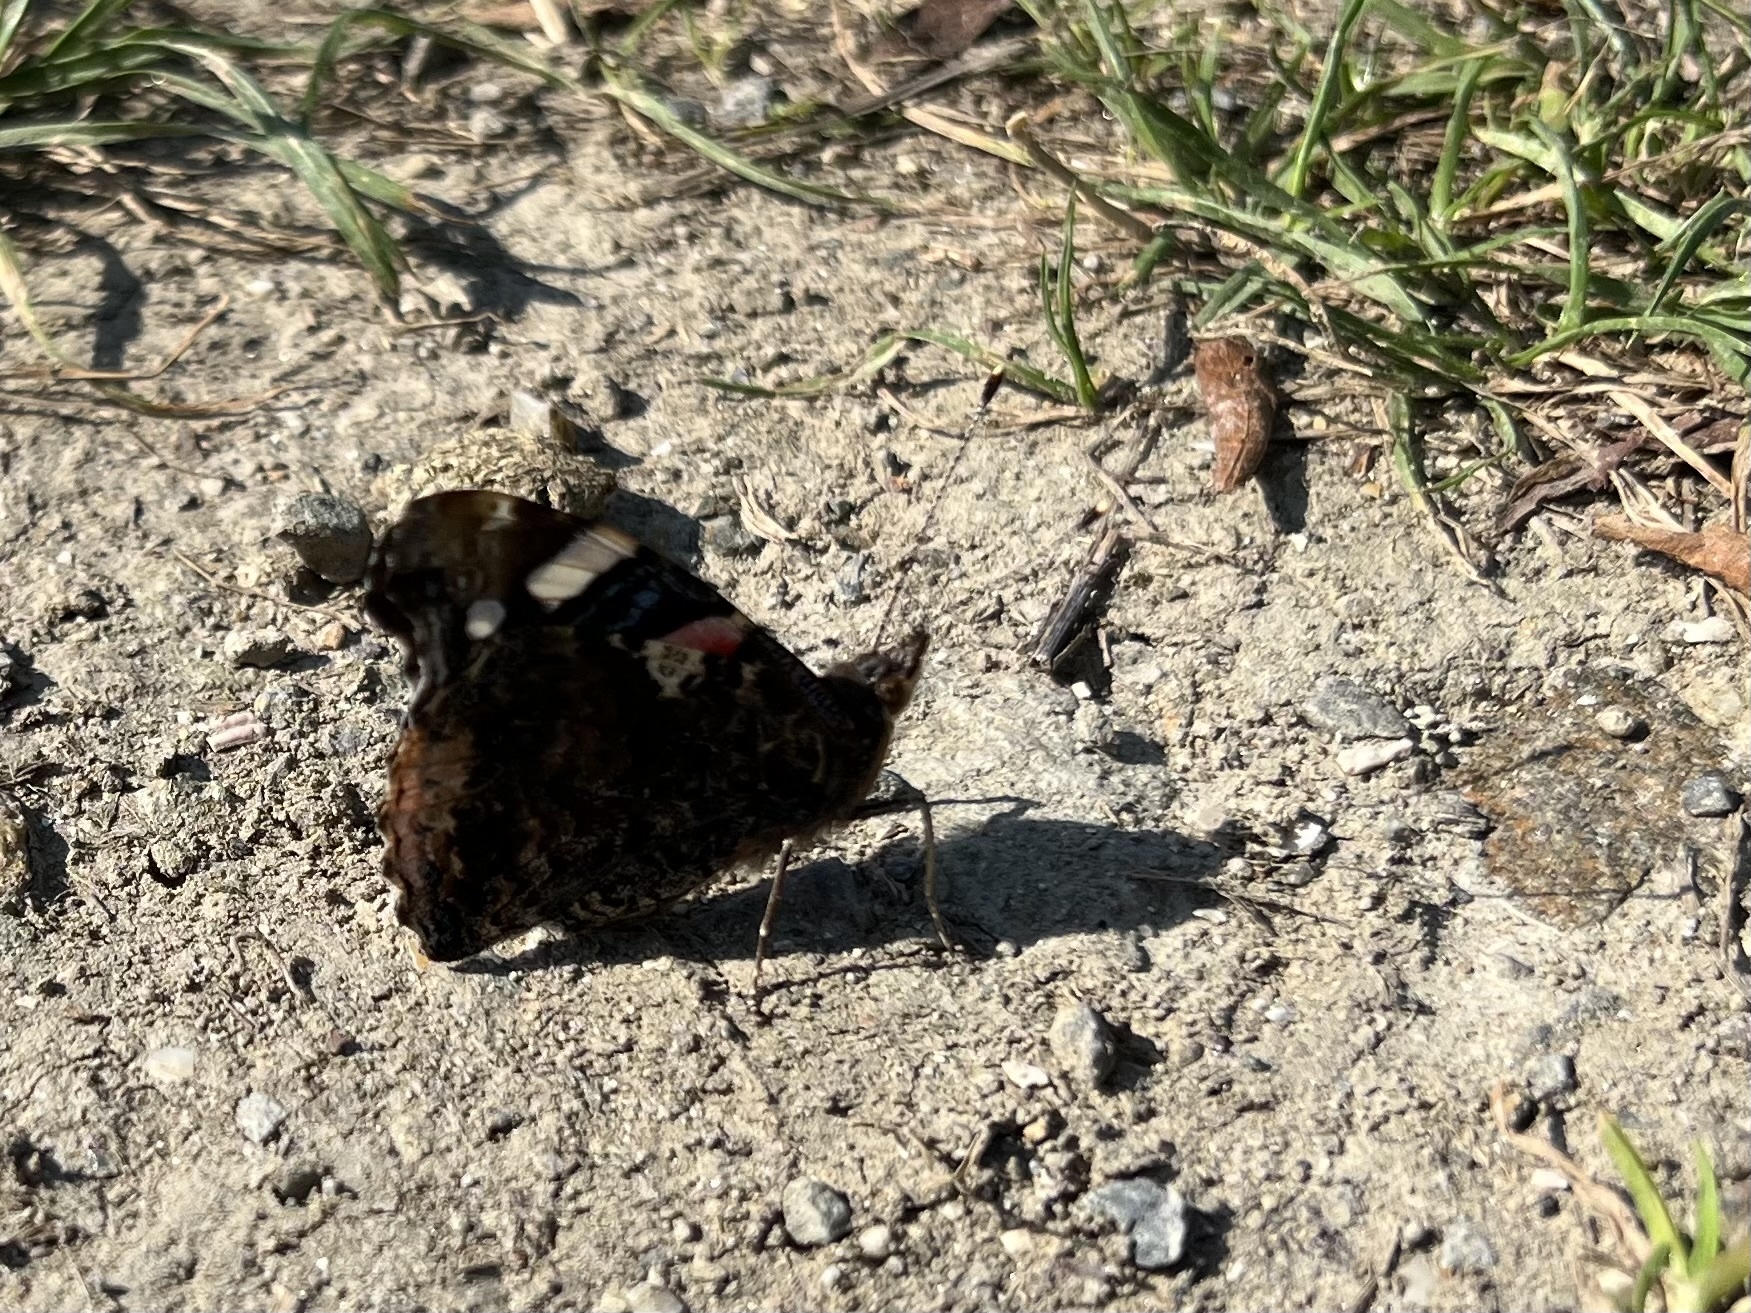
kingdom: Animalia
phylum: Arthropoda
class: Insecta
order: Lepidoptera
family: Nymphalidae
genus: Vanessa
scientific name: Vanessa atalanta
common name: Red admiral
